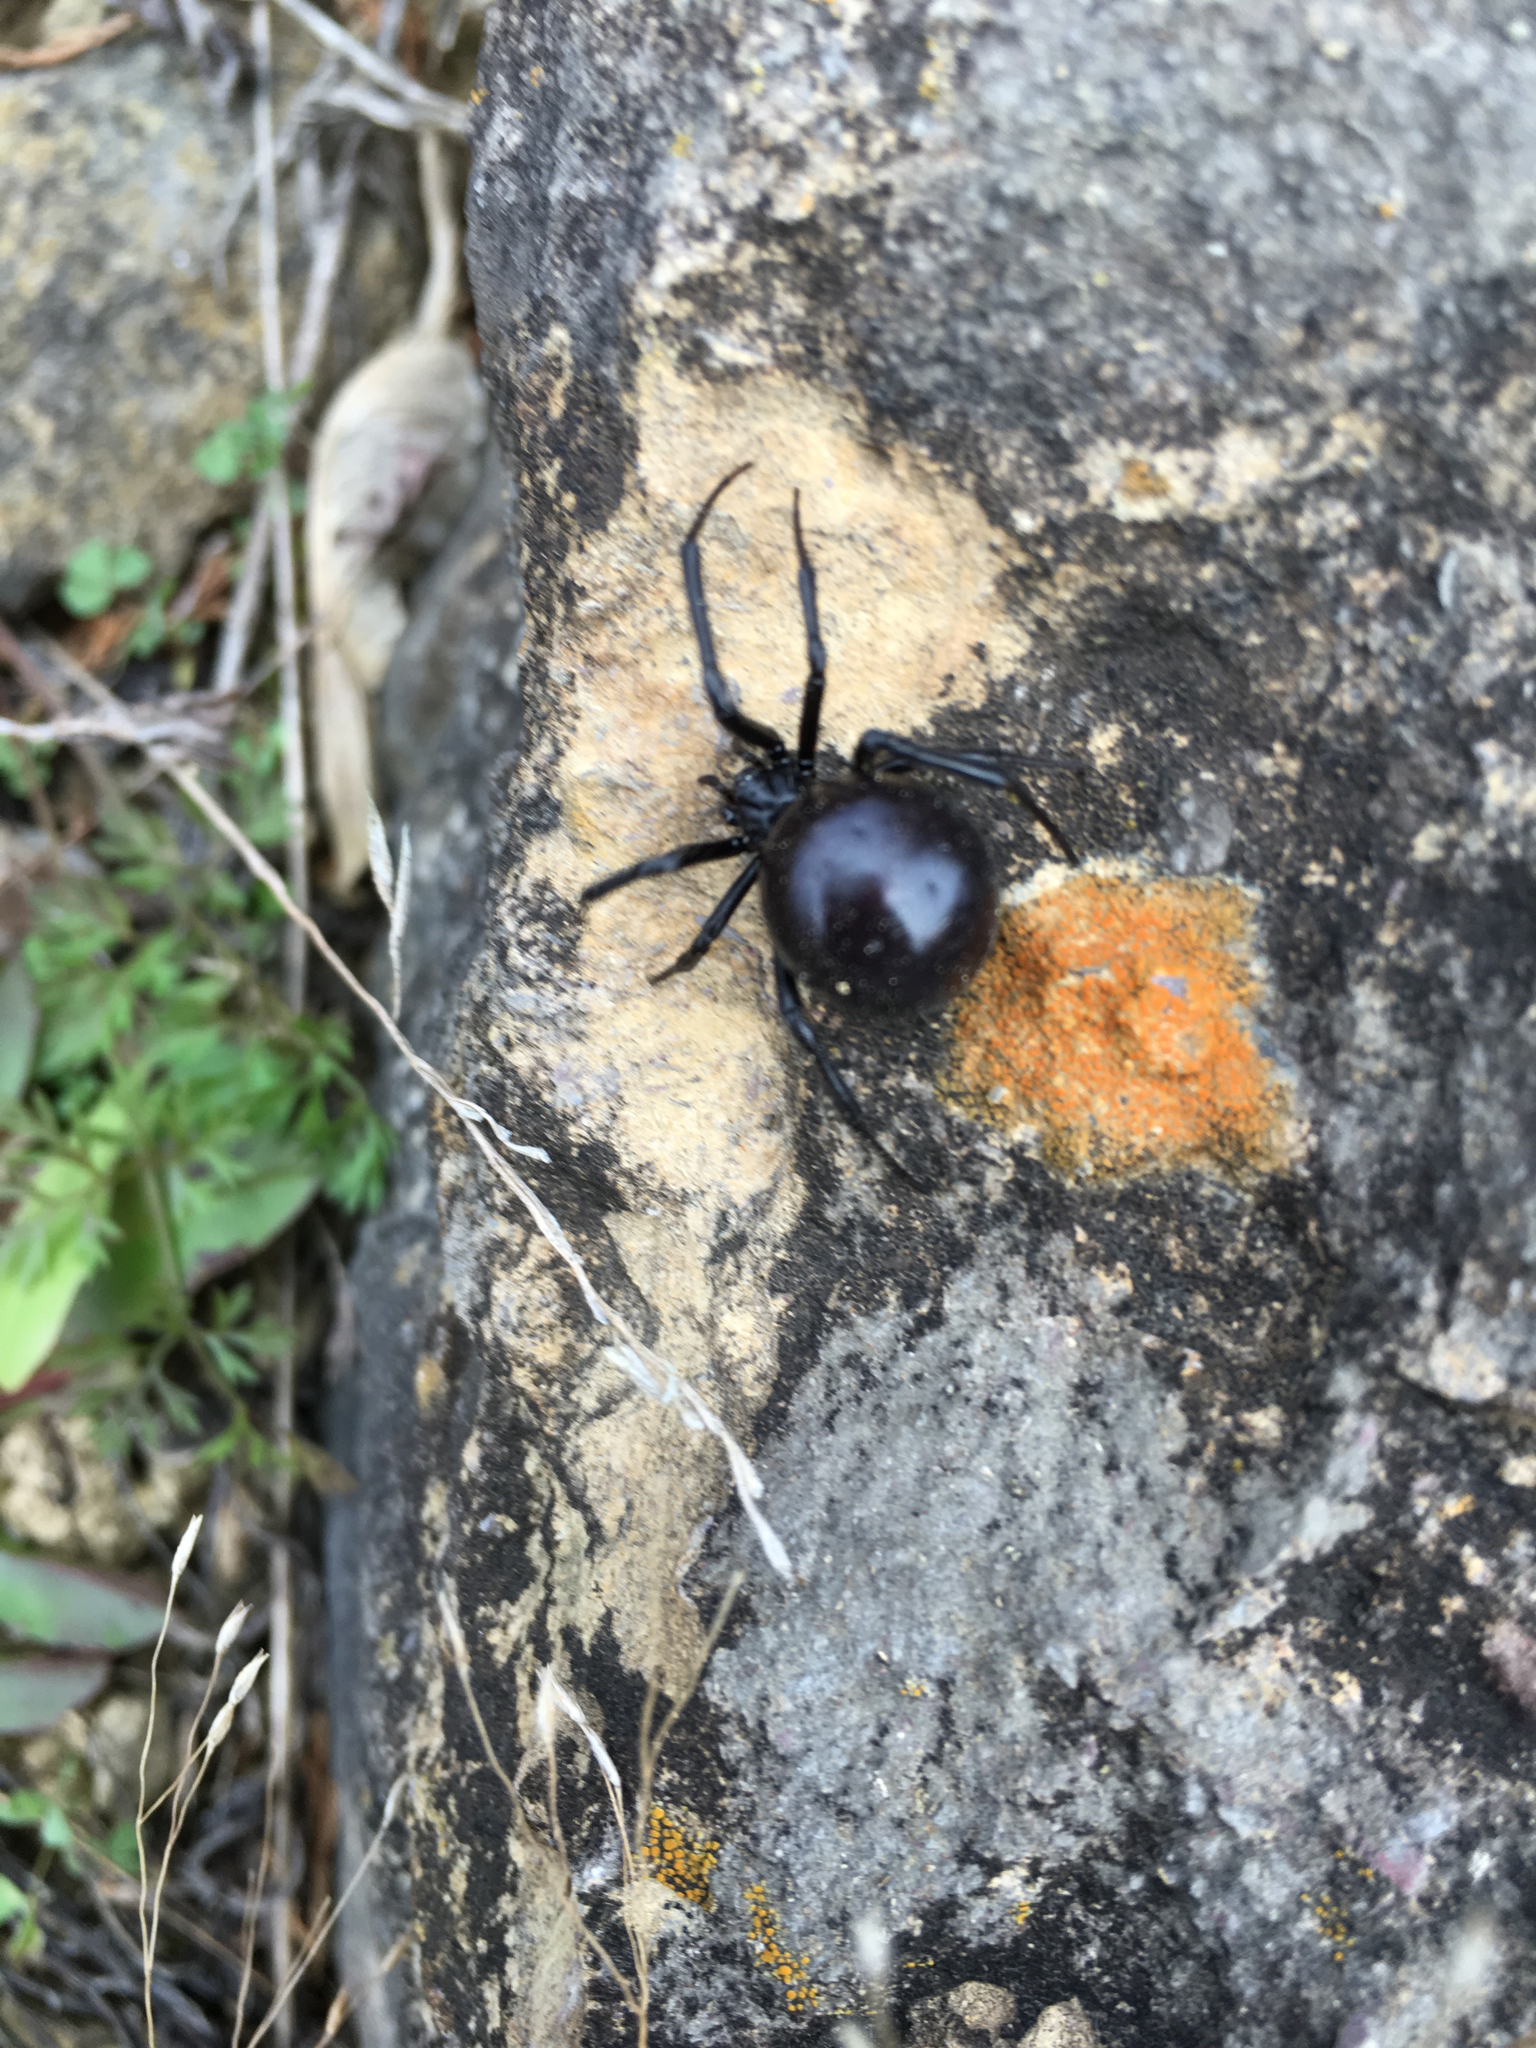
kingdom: Animalia
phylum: Arthropoda
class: Arachnida
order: Araneae
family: Theridiidae
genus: Latrodectus
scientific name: Latrodectus mactans
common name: Cobweb spiders
